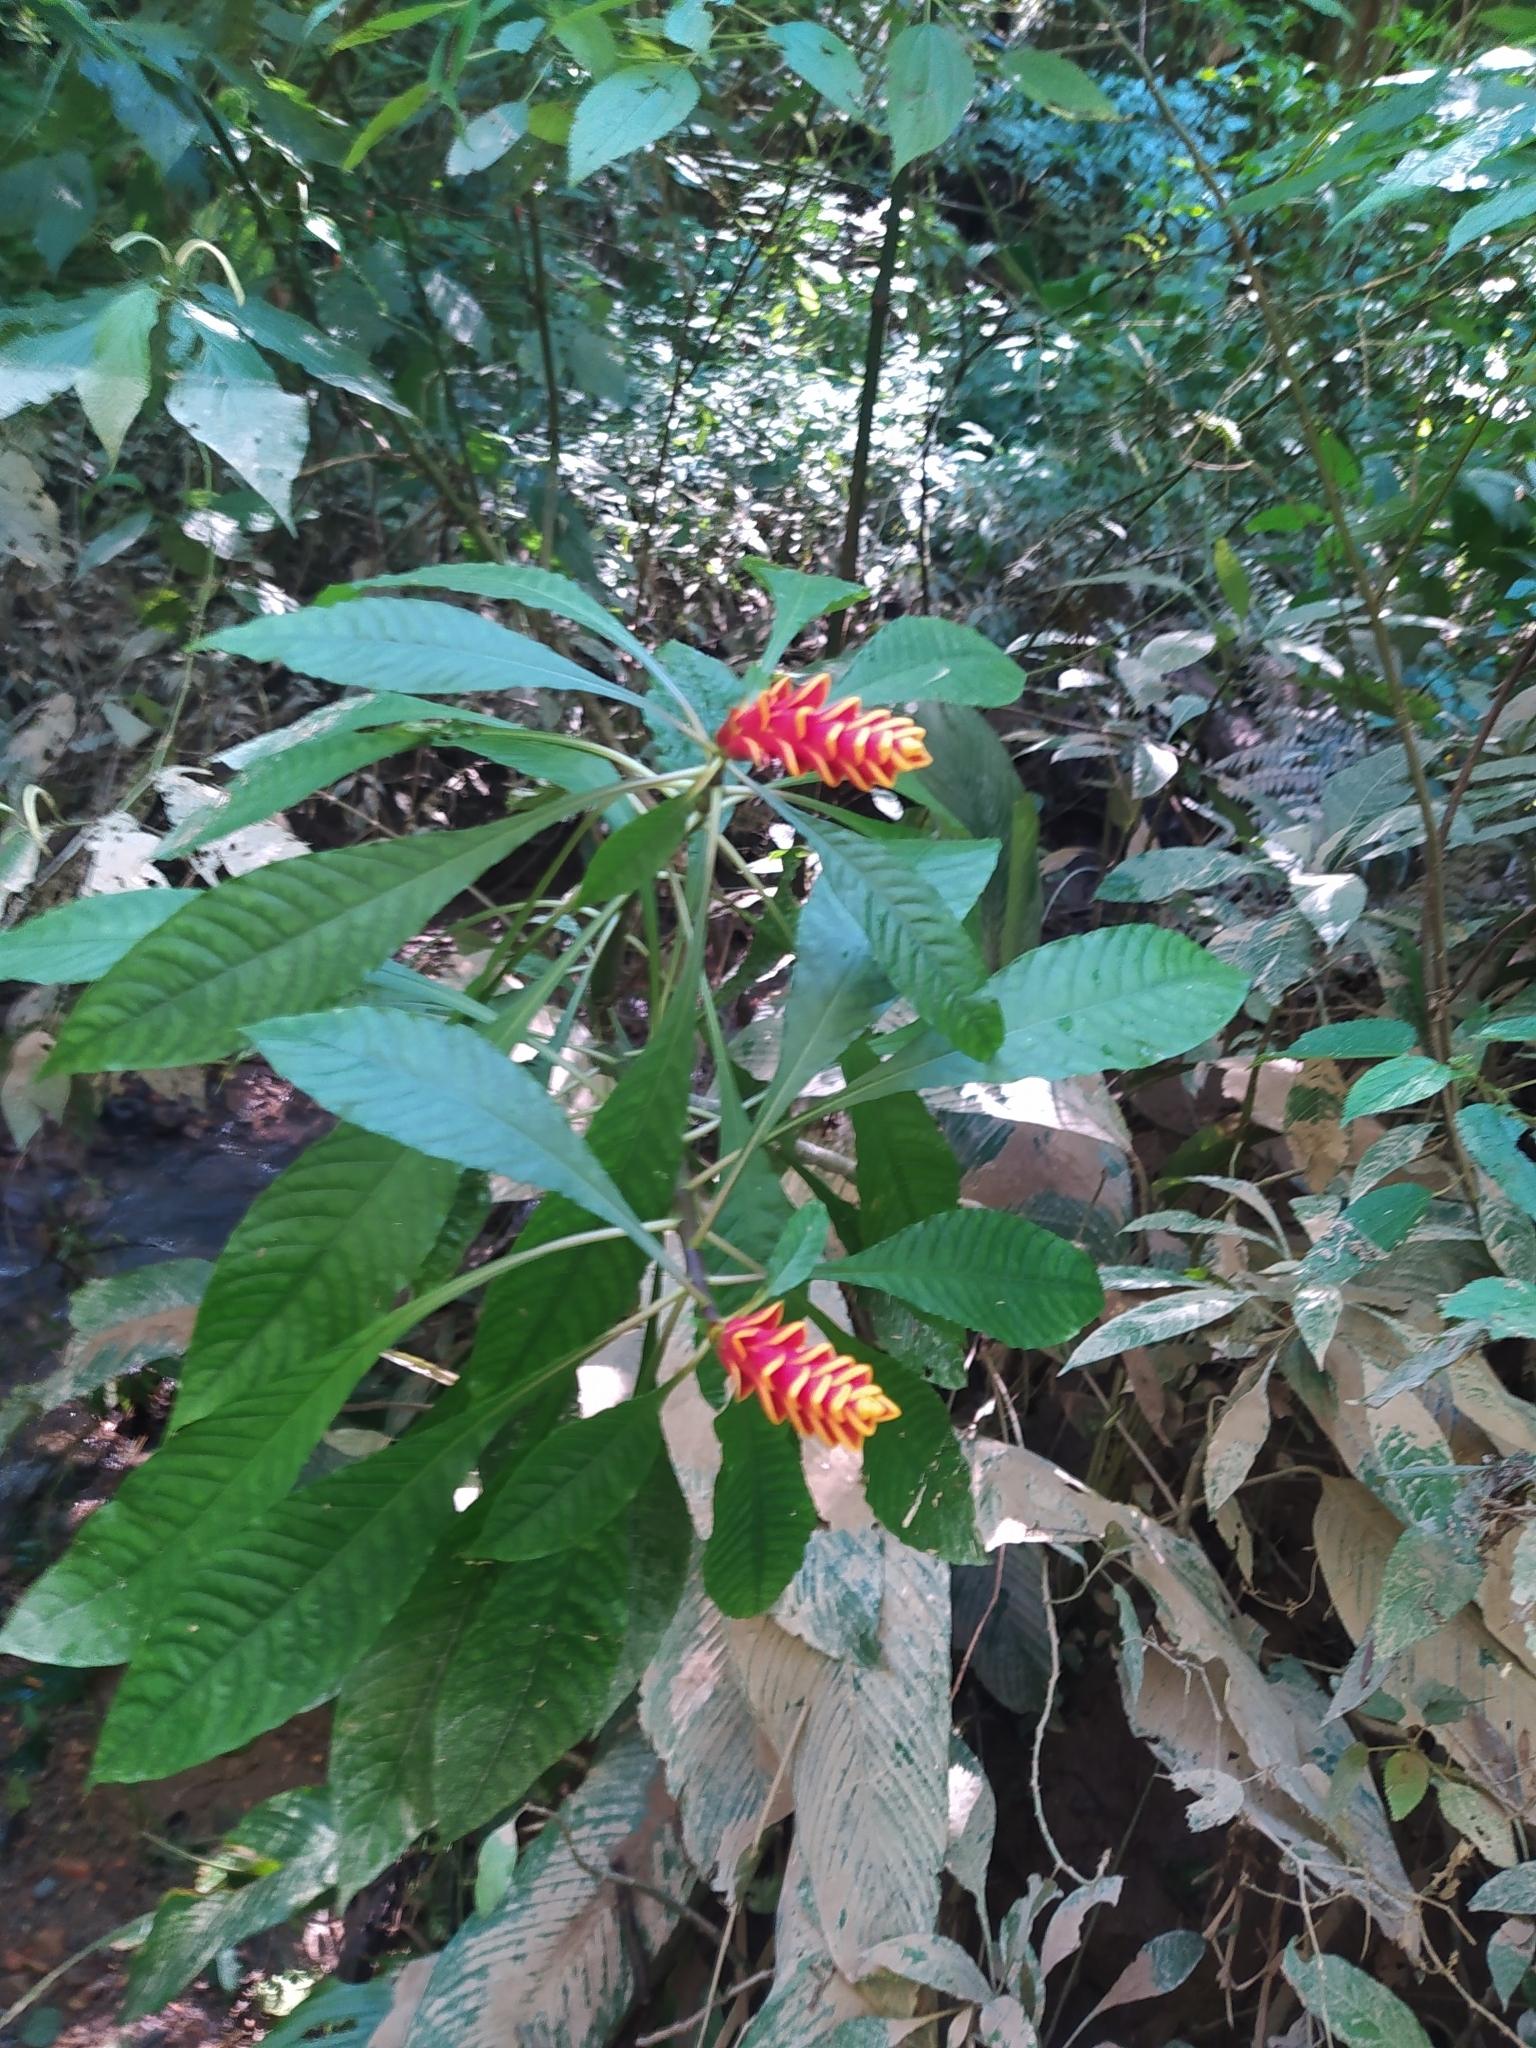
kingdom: Plantae
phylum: Tracheophyta
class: Magnoliopsida
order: Lamiales
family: Acanthaceae
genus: Aphelandra
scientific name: Aphelandra liboniana
